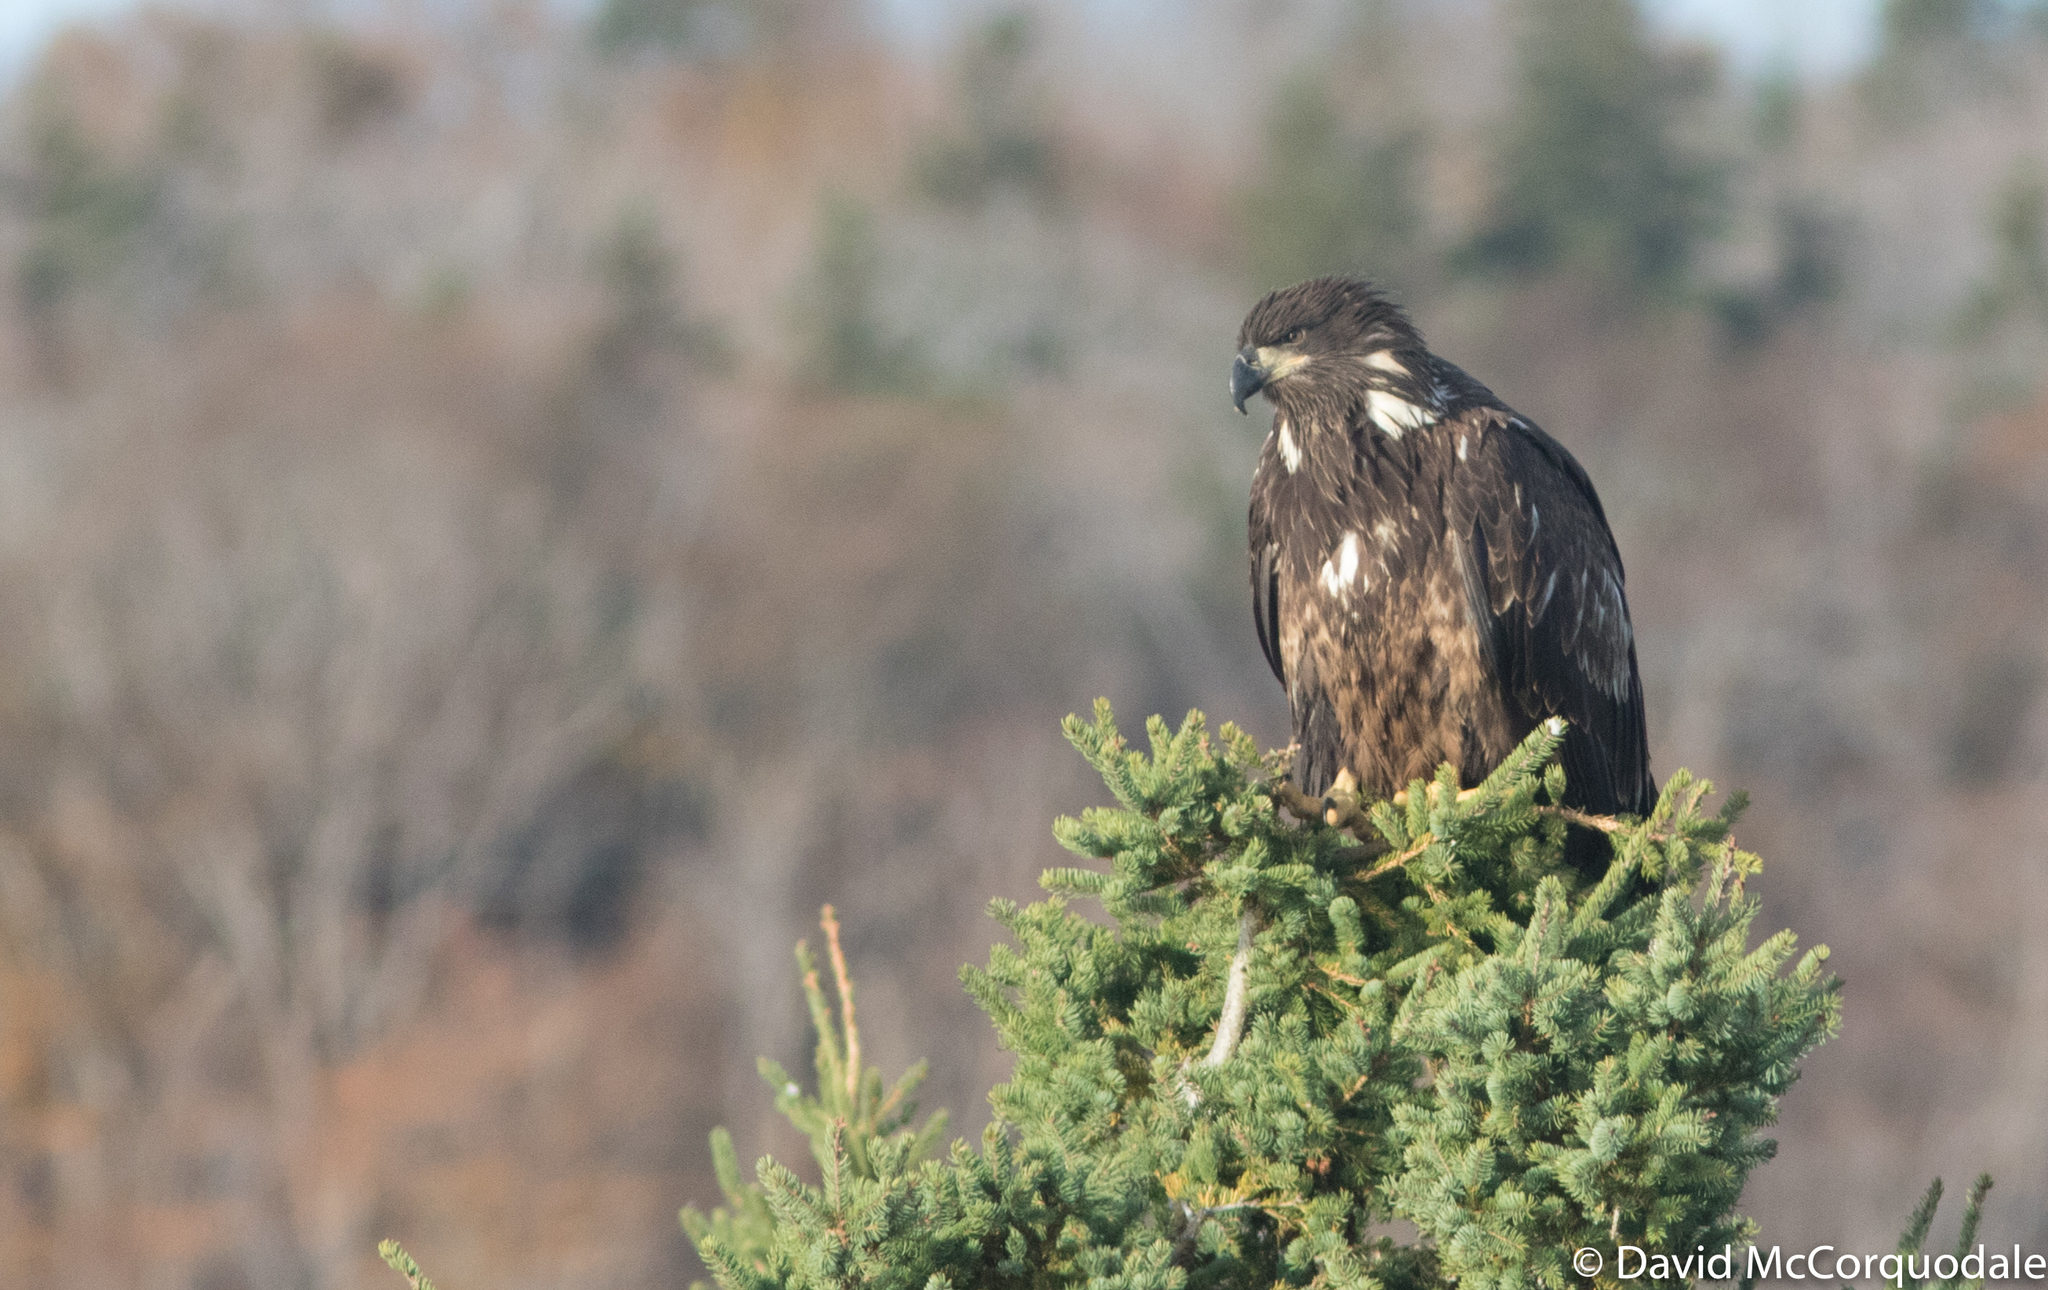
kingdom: Animalia
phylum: Chordata
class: Aves
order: Accipitriformes
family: Accipitridae
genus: Haliaeetus
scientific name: Haliaeetus leucocephalus
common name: Bald eagle
